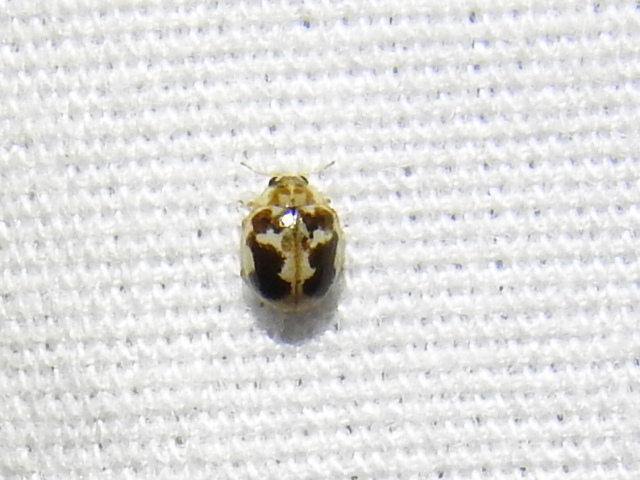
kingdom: Animalia
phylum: Arthropoda
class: Insecta
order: Coleoptera
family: Coccinellidae
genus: Psyllobora
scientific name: Psyllobora renifer
